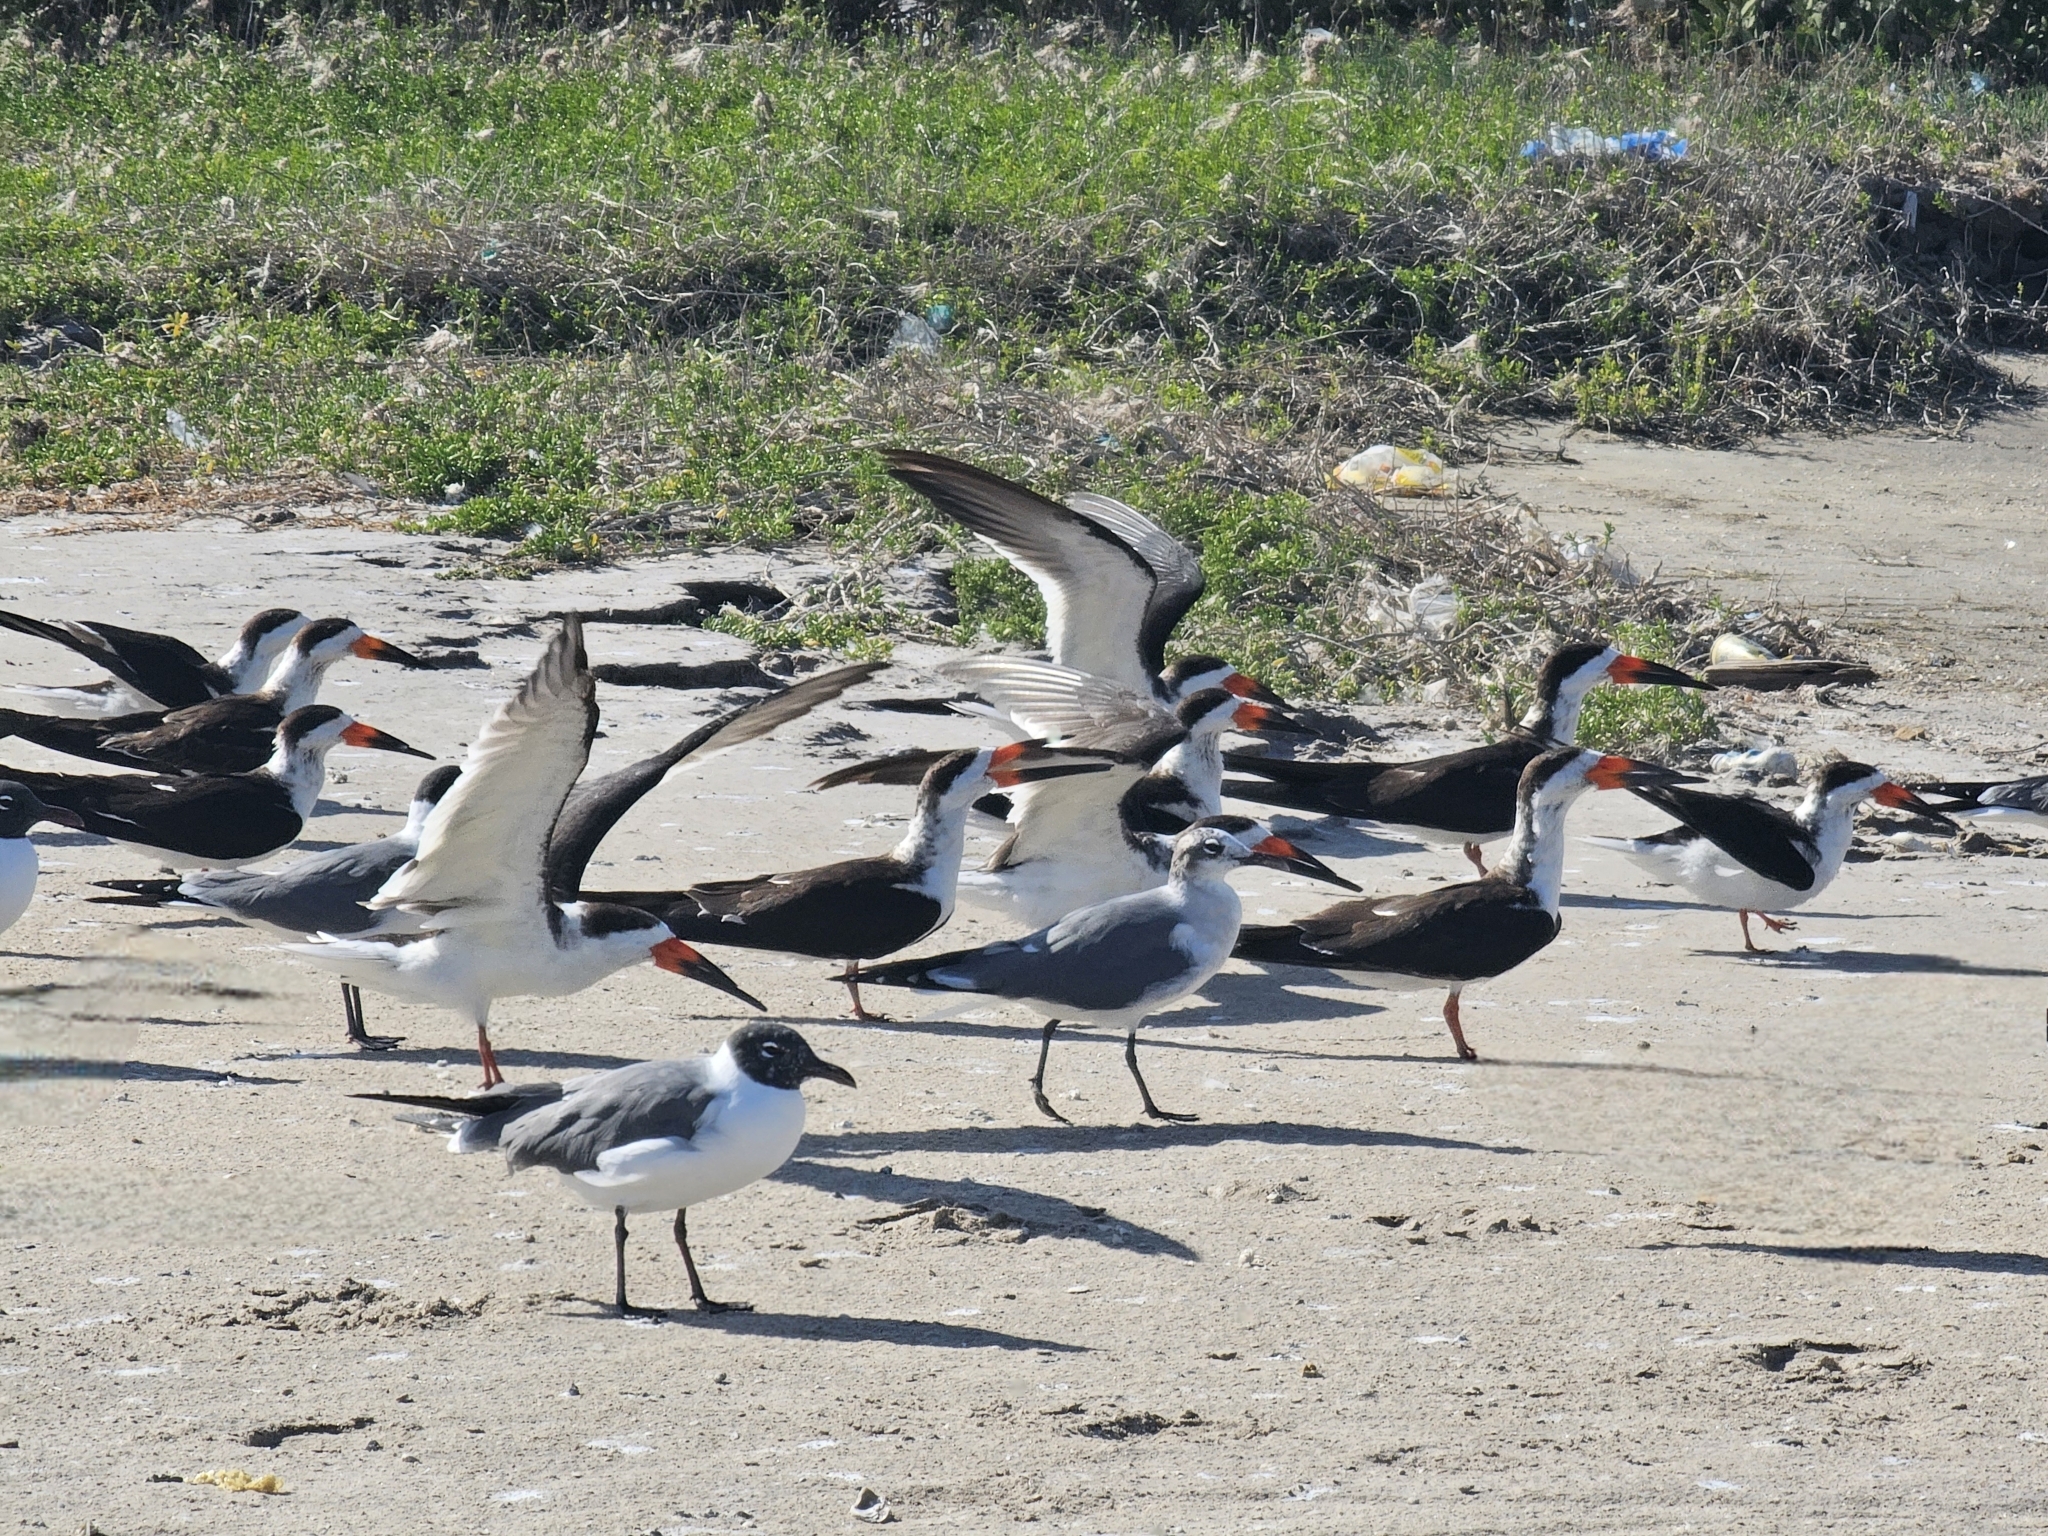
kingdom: Animalia
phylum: Chordata
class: Aves
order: Charadriiformes
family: Laridae
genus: Rynchops
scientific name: Rynchops niger
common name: Black skimmer
